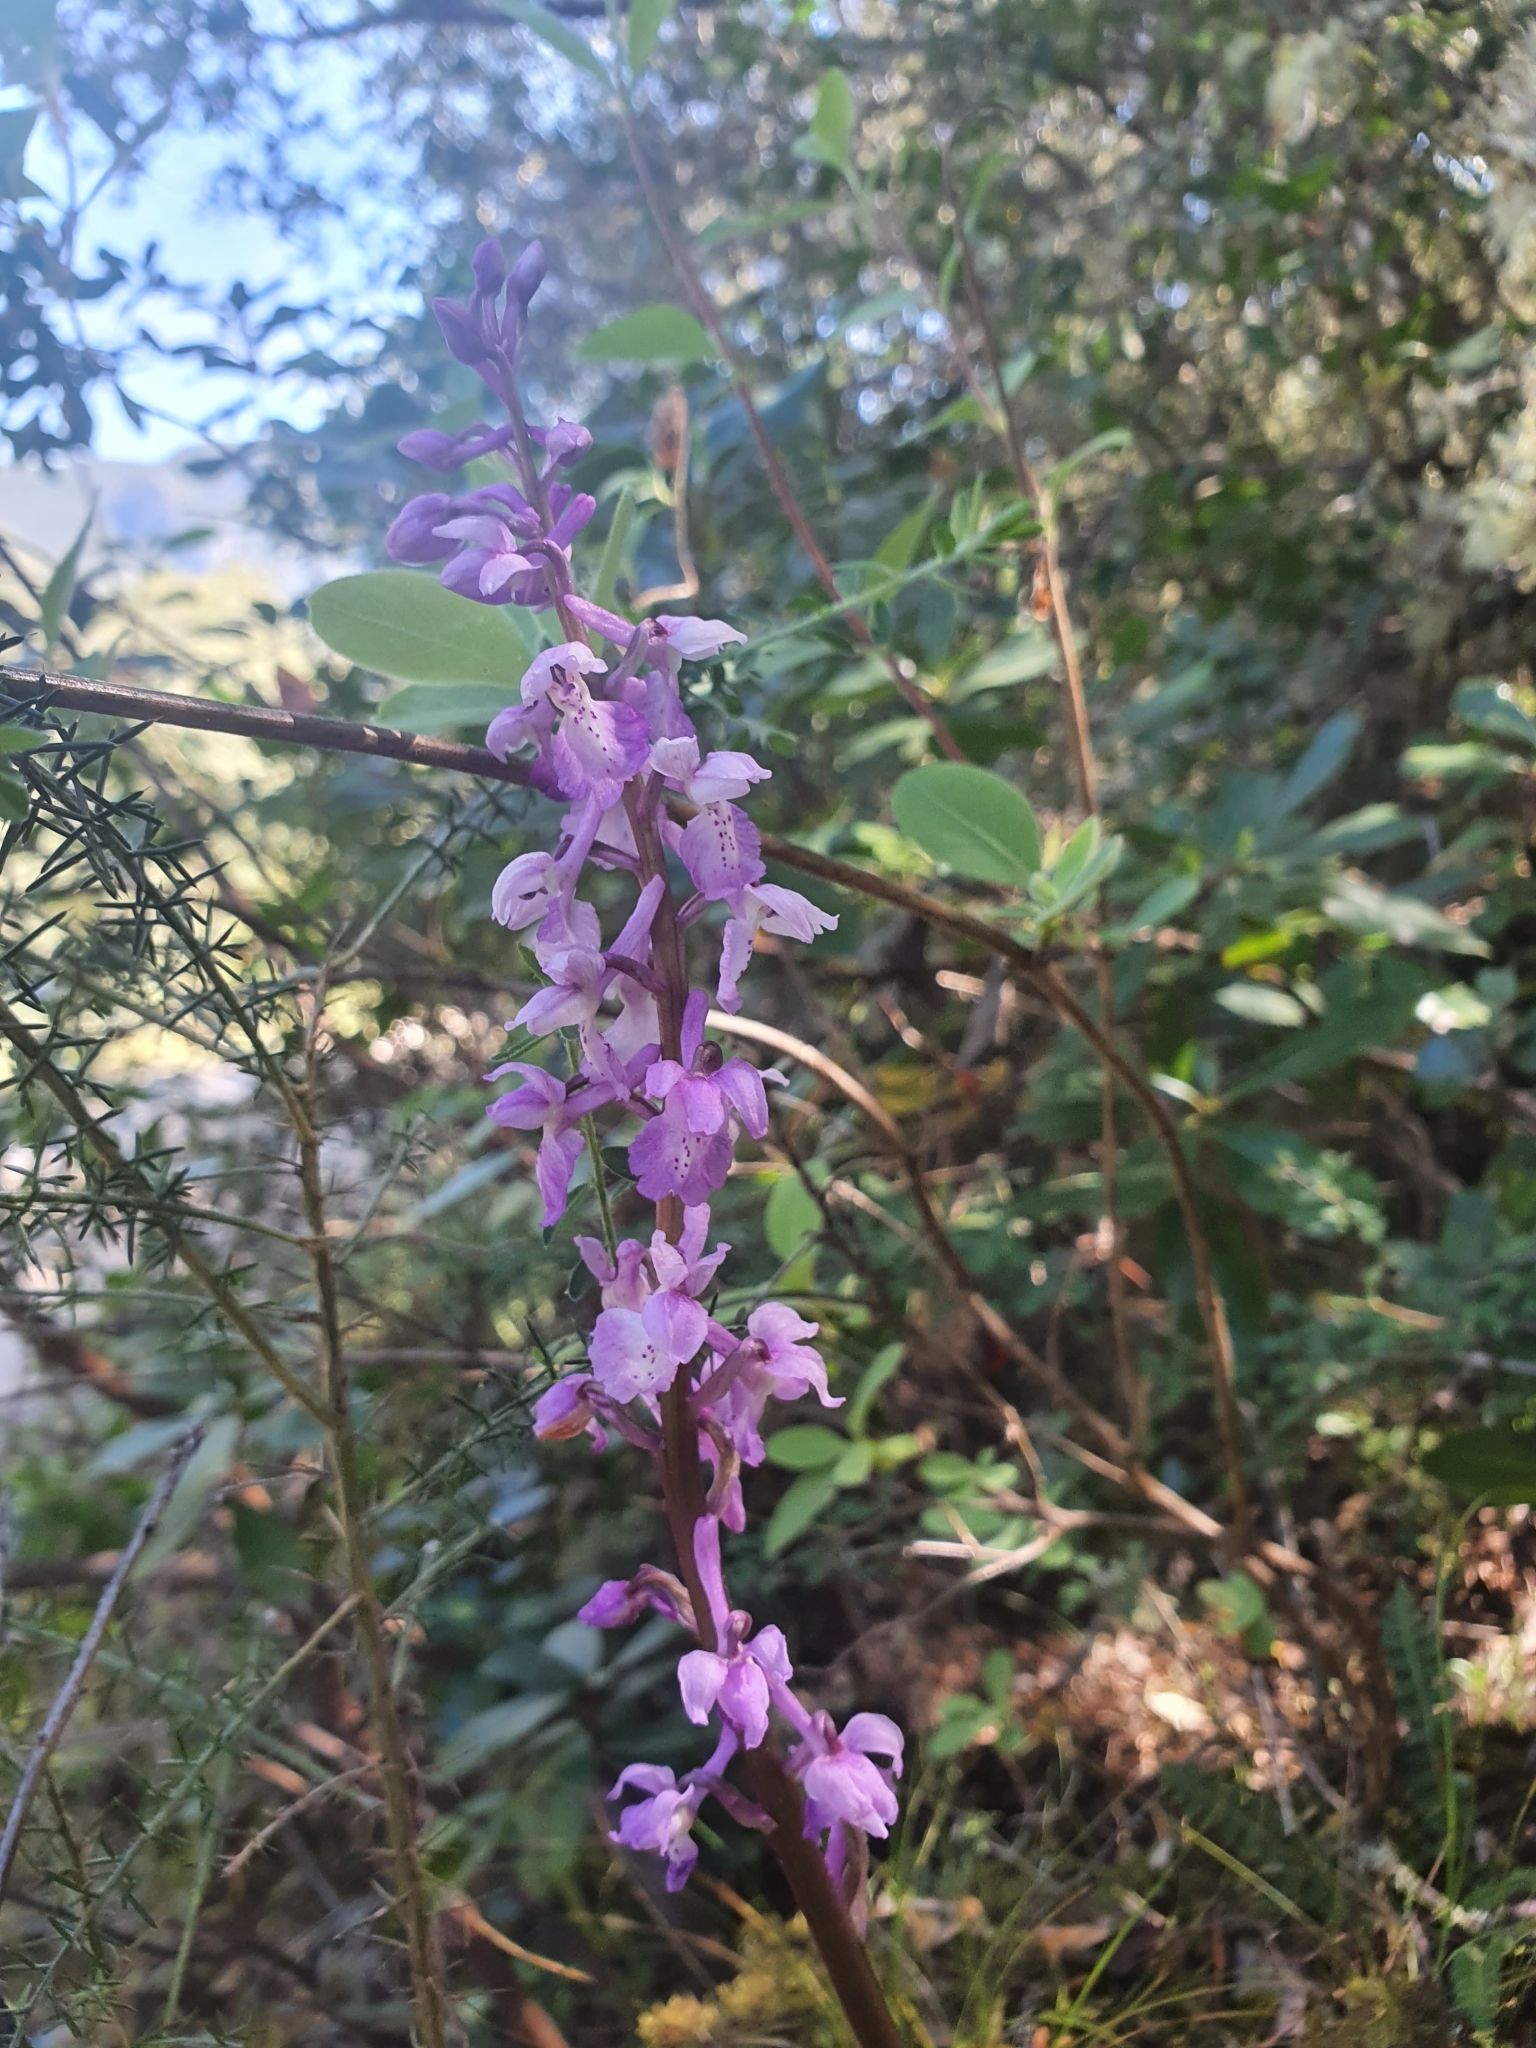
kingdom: Plantae
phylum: Tracheophyta
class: Liliopsida
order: Asparagales
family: Orchidaceae
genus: Orchis
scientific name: Orchis mascula
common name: Early-purple orchid
